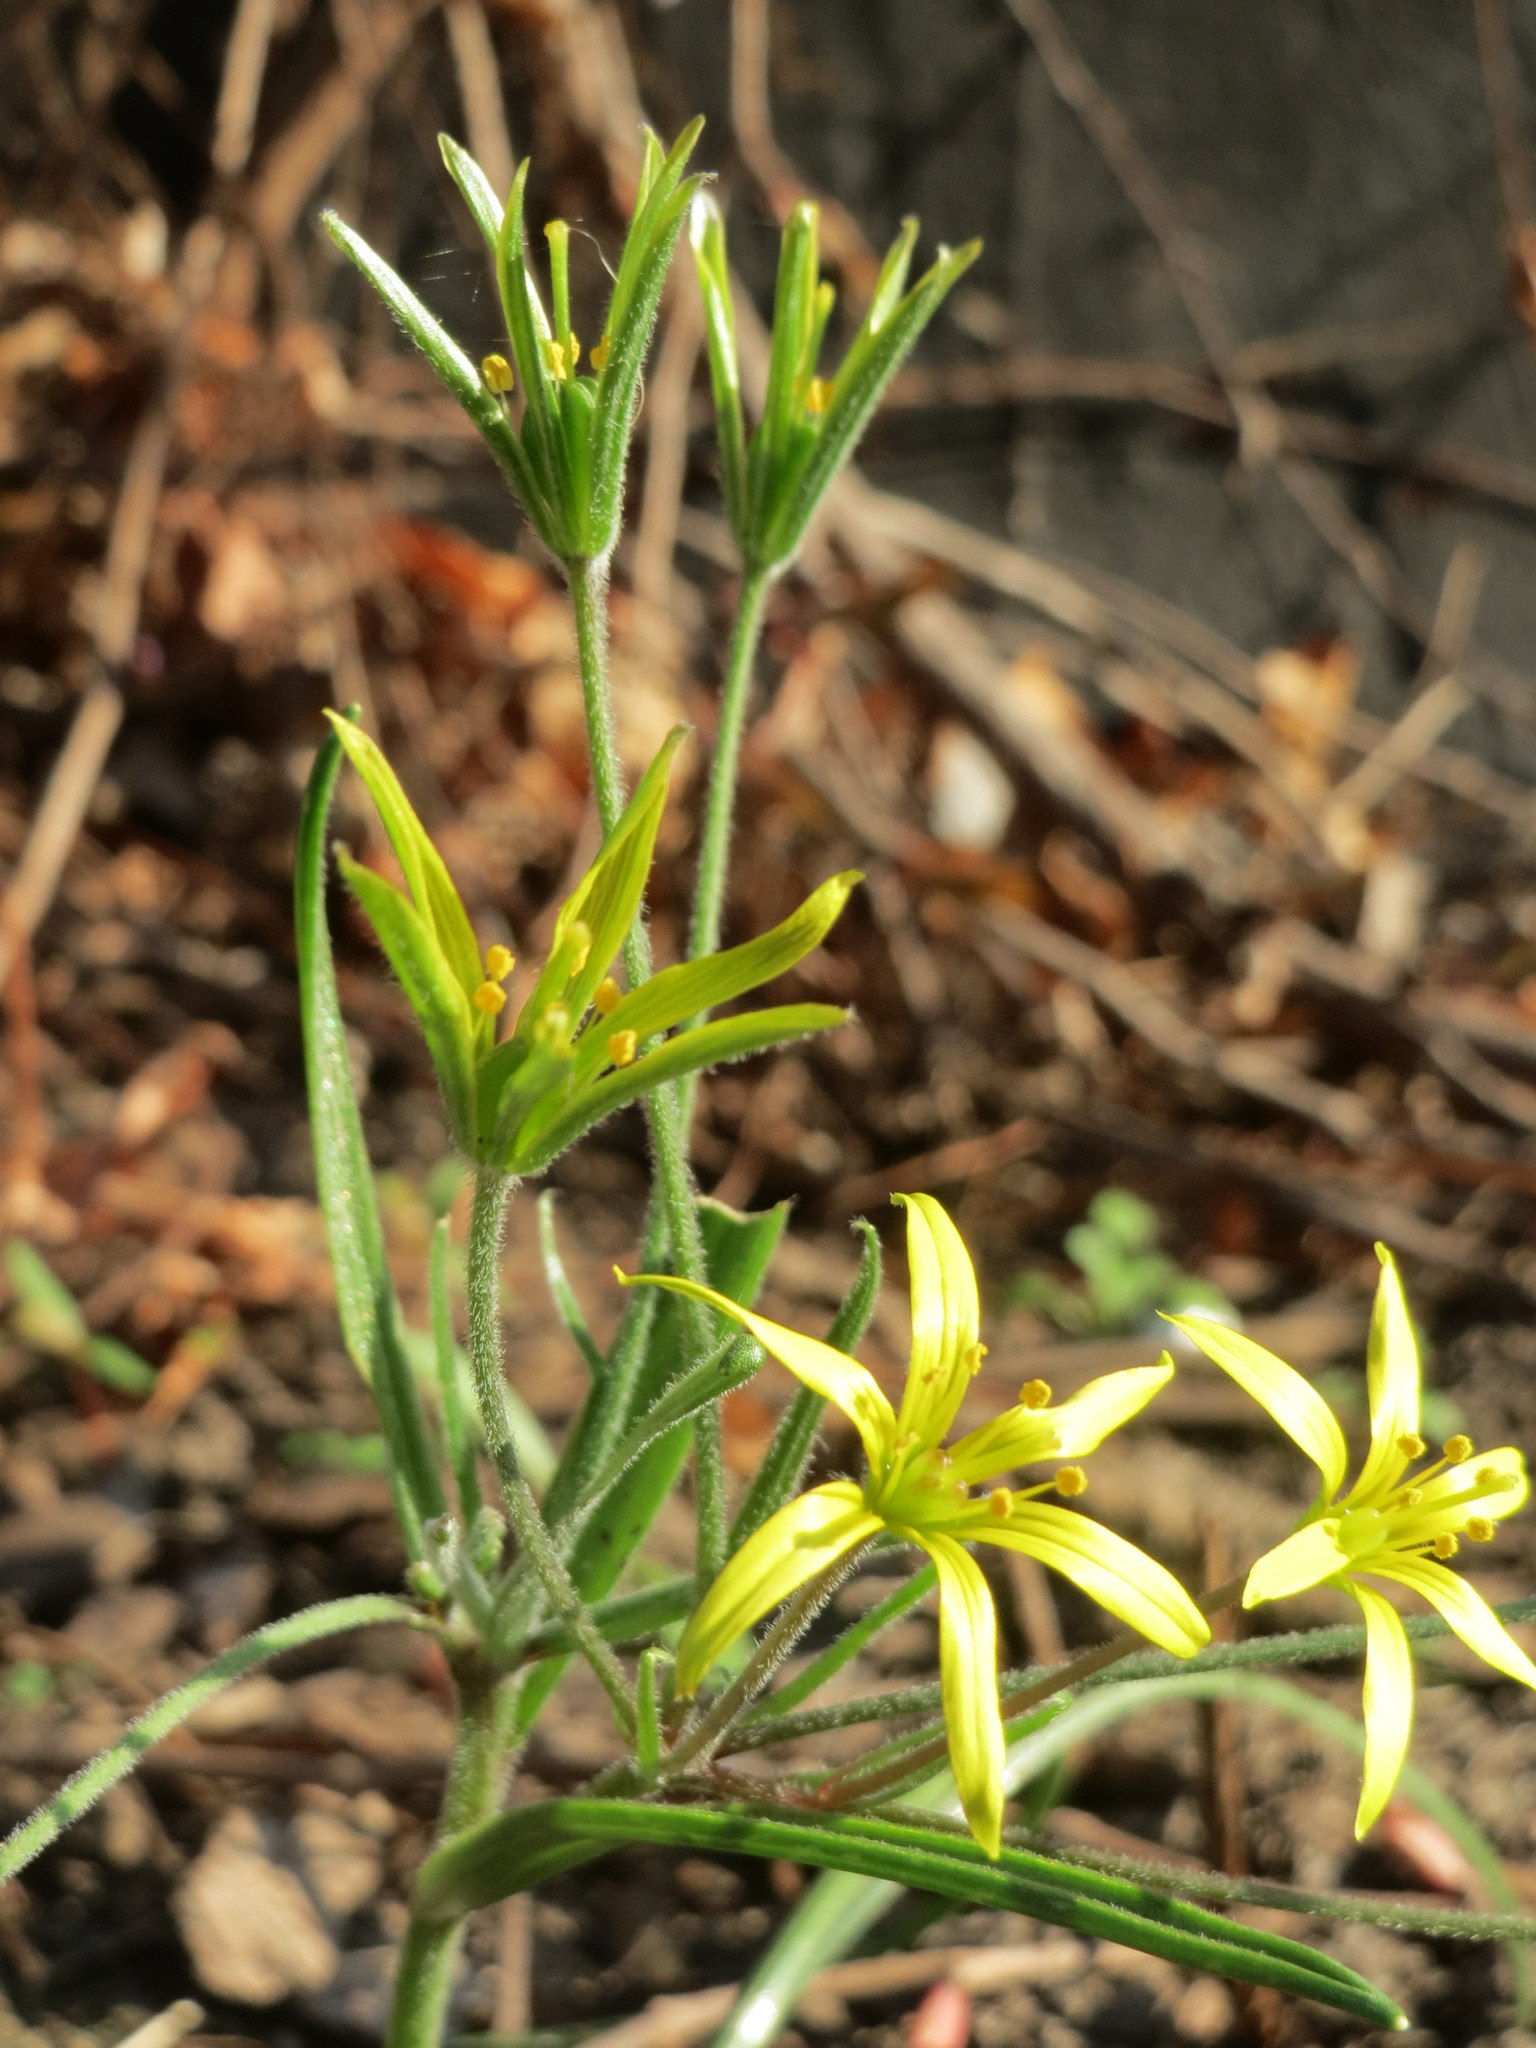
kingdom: Plantae
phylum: Tracheophyta
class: Liliopsida
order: Liliales
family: Liliaceae
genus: Gagea
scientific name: Gagea villosa
